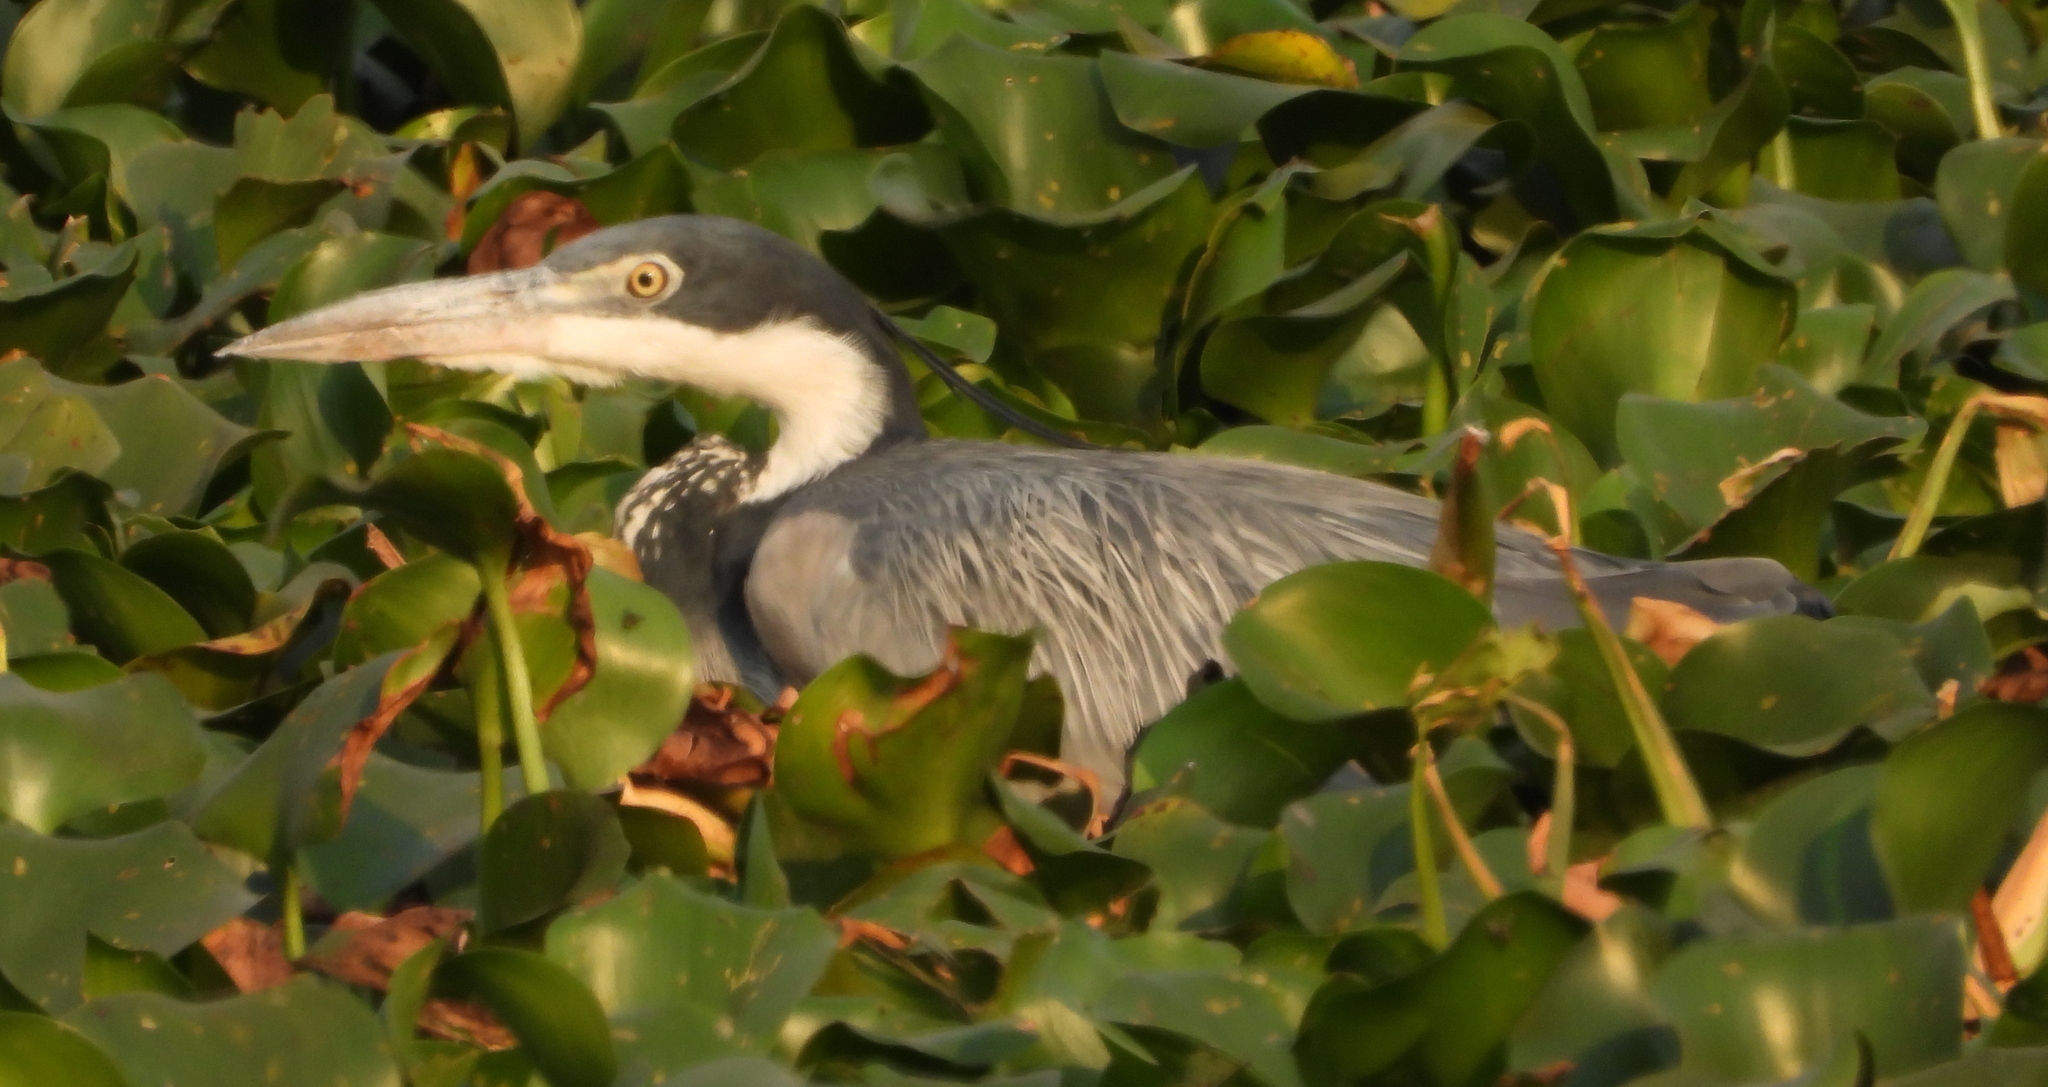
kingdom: Animalia
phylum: Chordata
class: Aves
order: Pelecaniformes
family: Ardeidae
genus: Ardea
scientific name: Ardea melanocephala
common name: Black-headed heron
